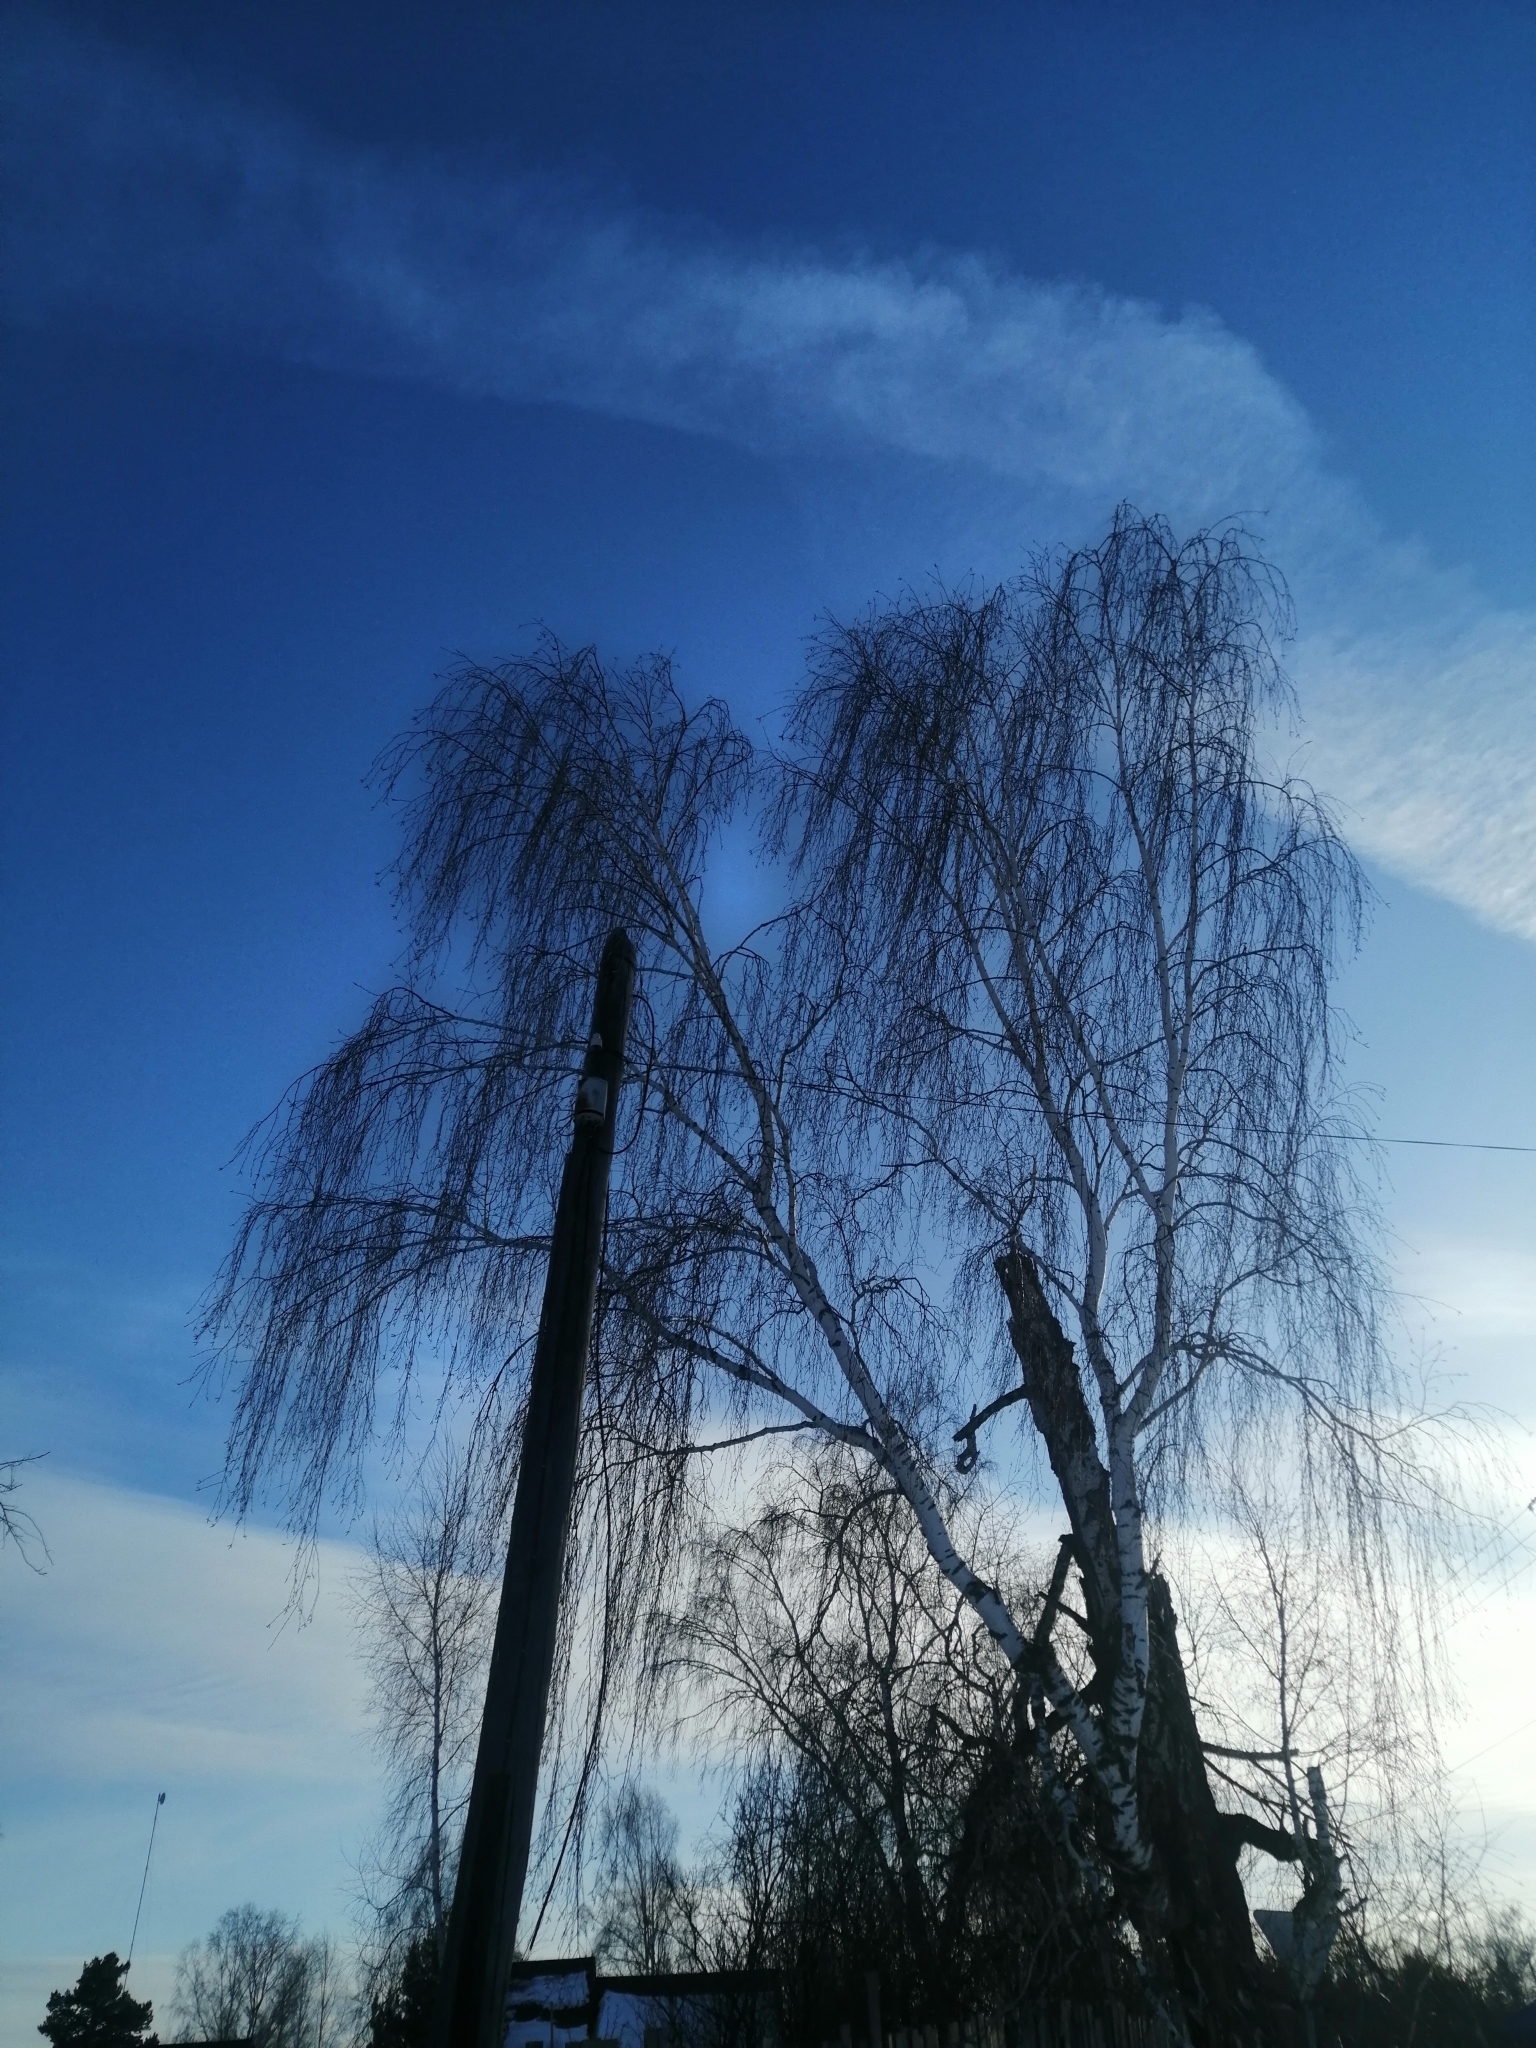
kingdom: Plantae
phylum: Tracheophyta
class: Magnoliopsida
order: Fagales
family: Betulaceae
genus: Betula
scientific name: Betula pendula
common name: Silver birch
